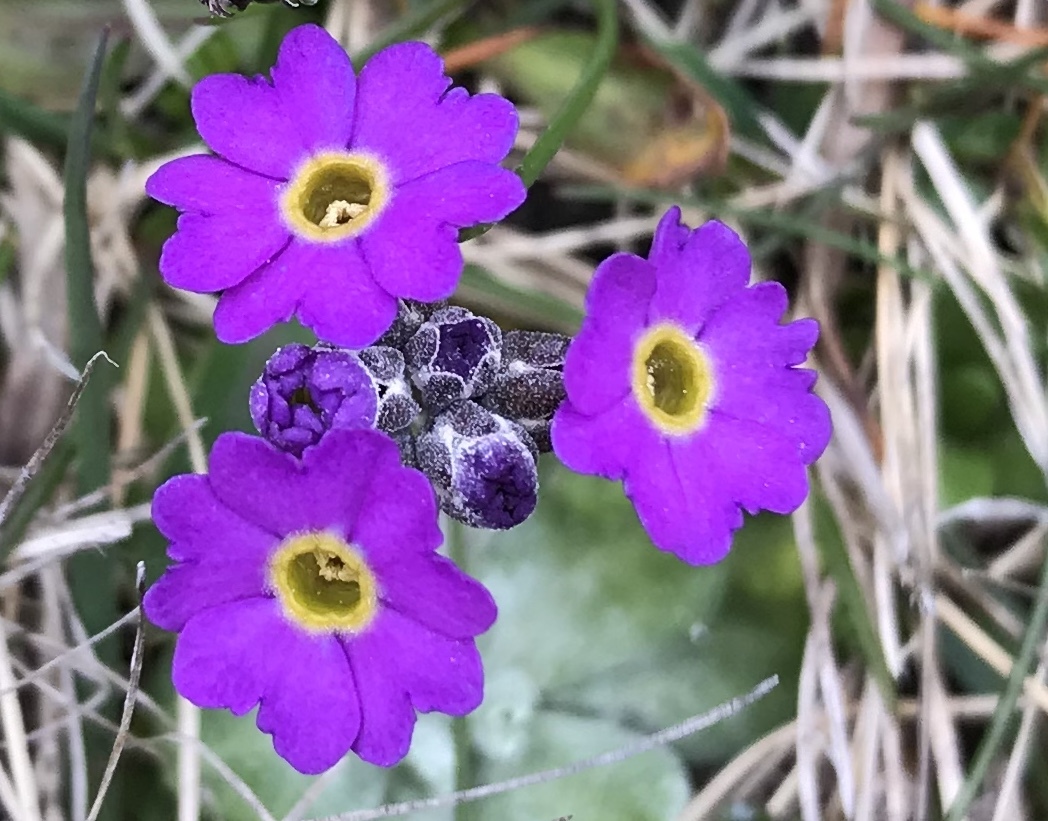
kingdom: Plantae
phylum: Tracheophyta
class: Magnoliopsida
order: Ericales
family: Primulaceae
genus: Primula
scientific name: Primula scotica
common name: Scottish primrose
